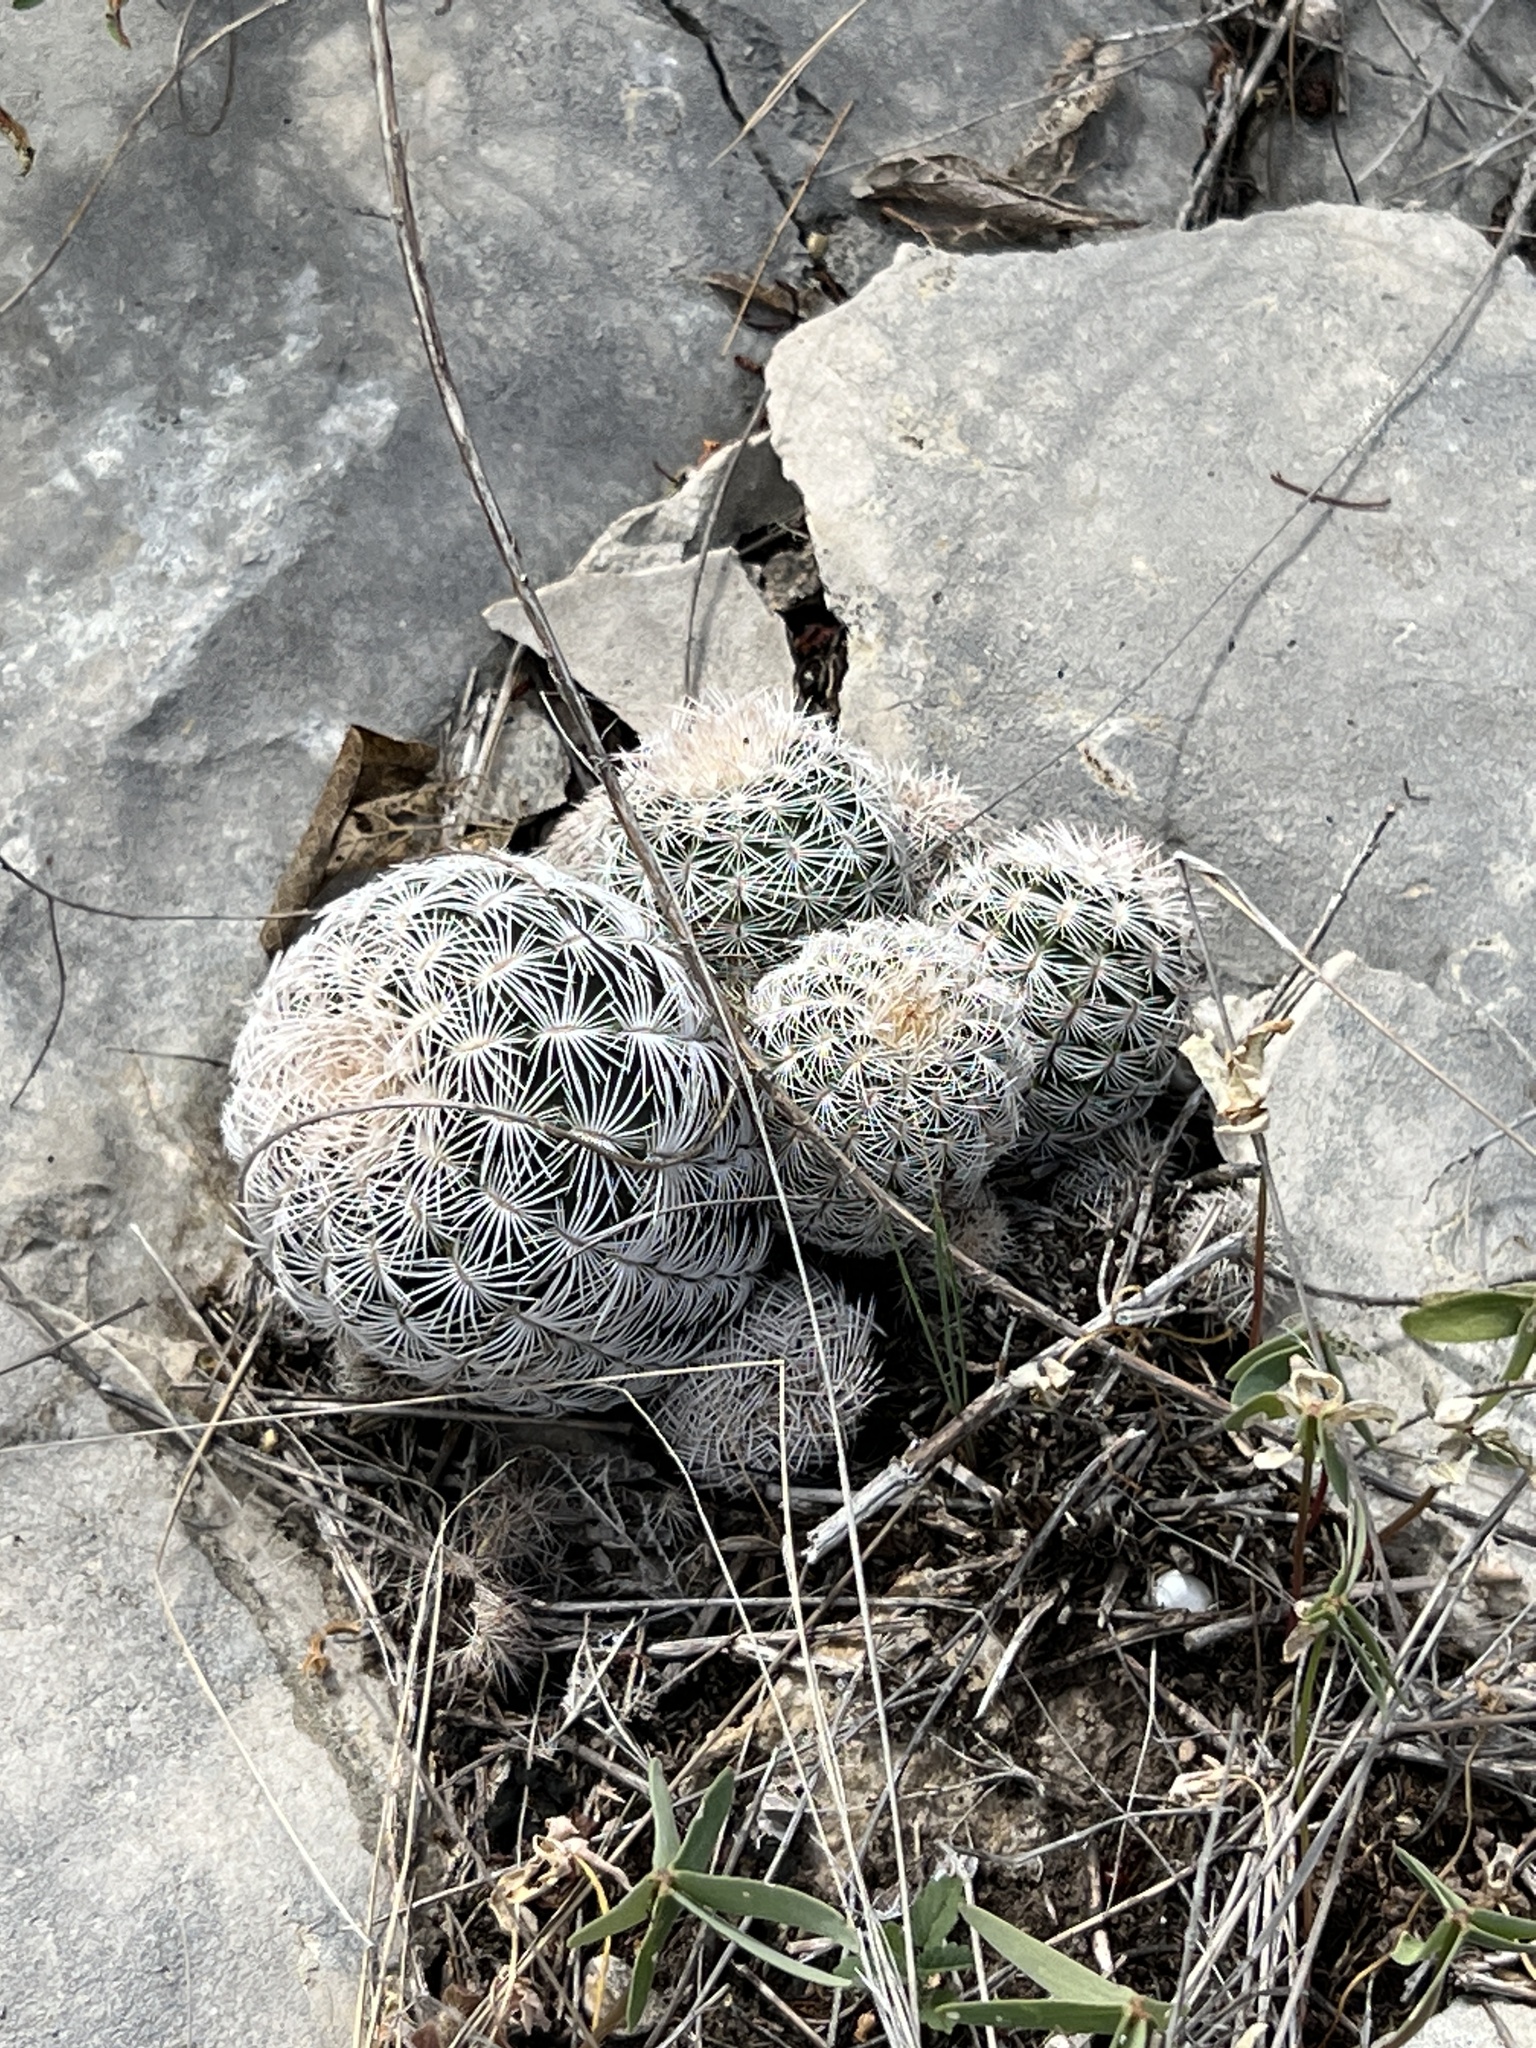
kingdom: Plantae
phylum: Tracheophyta
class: Magnoliopsida
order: Caryophyllales
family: Cactaceae
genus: Echinocereus
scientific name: Echinocereus reichenbachii
